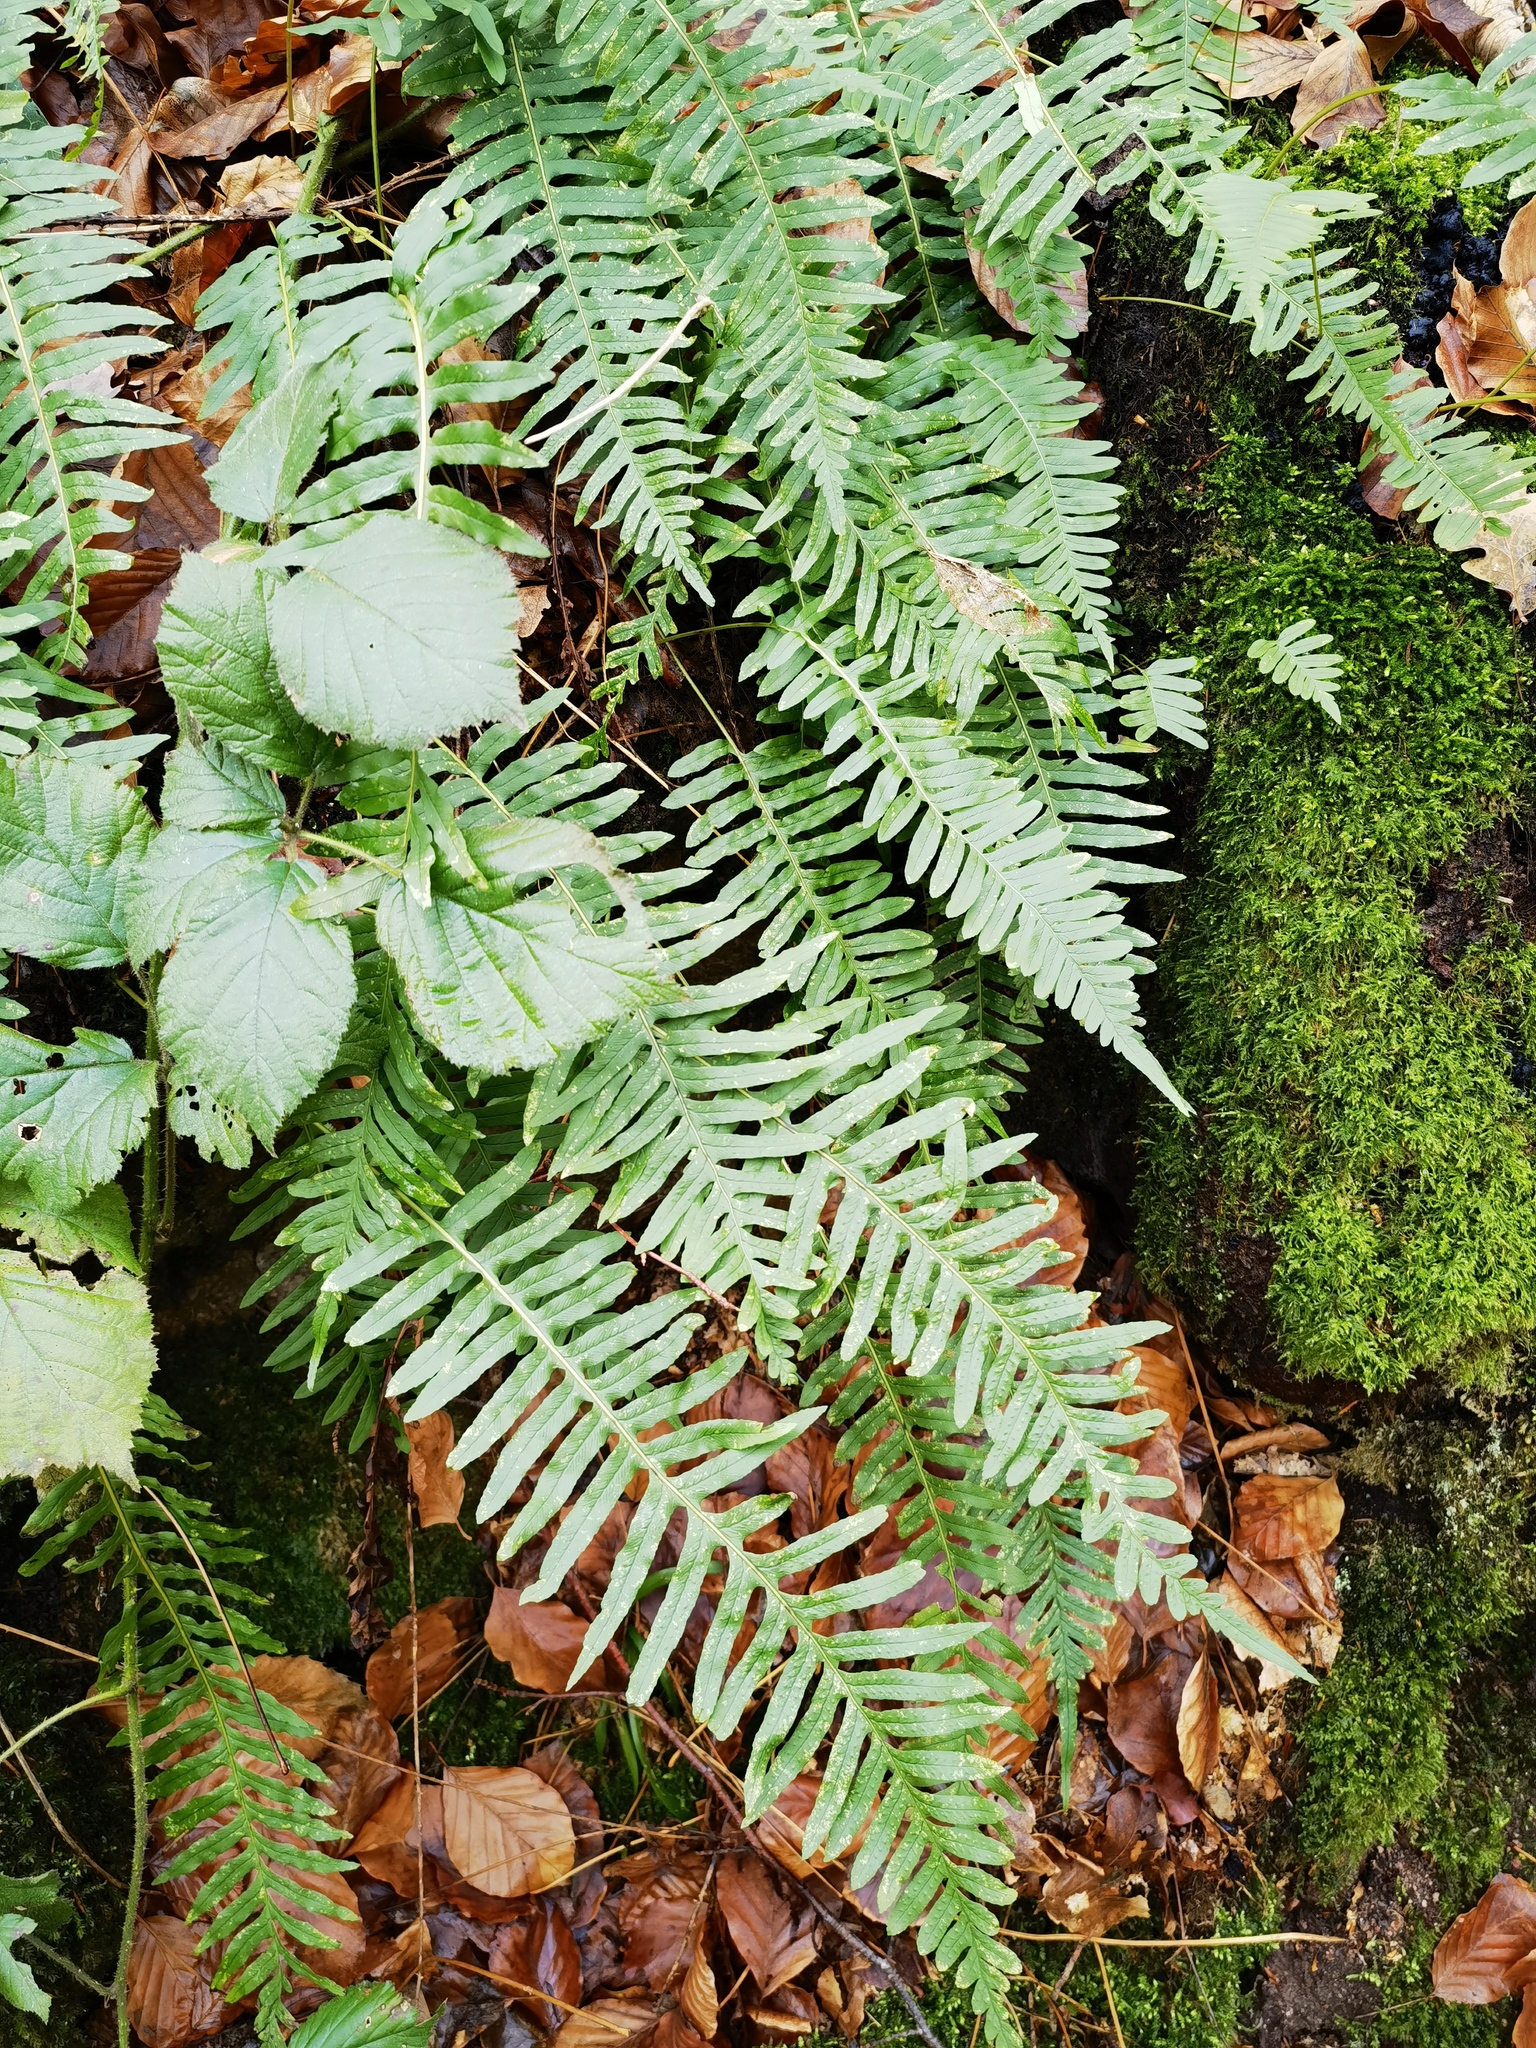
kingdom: Plantae
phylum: Tracheophyta
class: Polypodiopsida
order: Polypodiales
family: Polypodiaceae
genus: Polypodium
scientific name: Polypodium vulgare
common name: Common polypody
